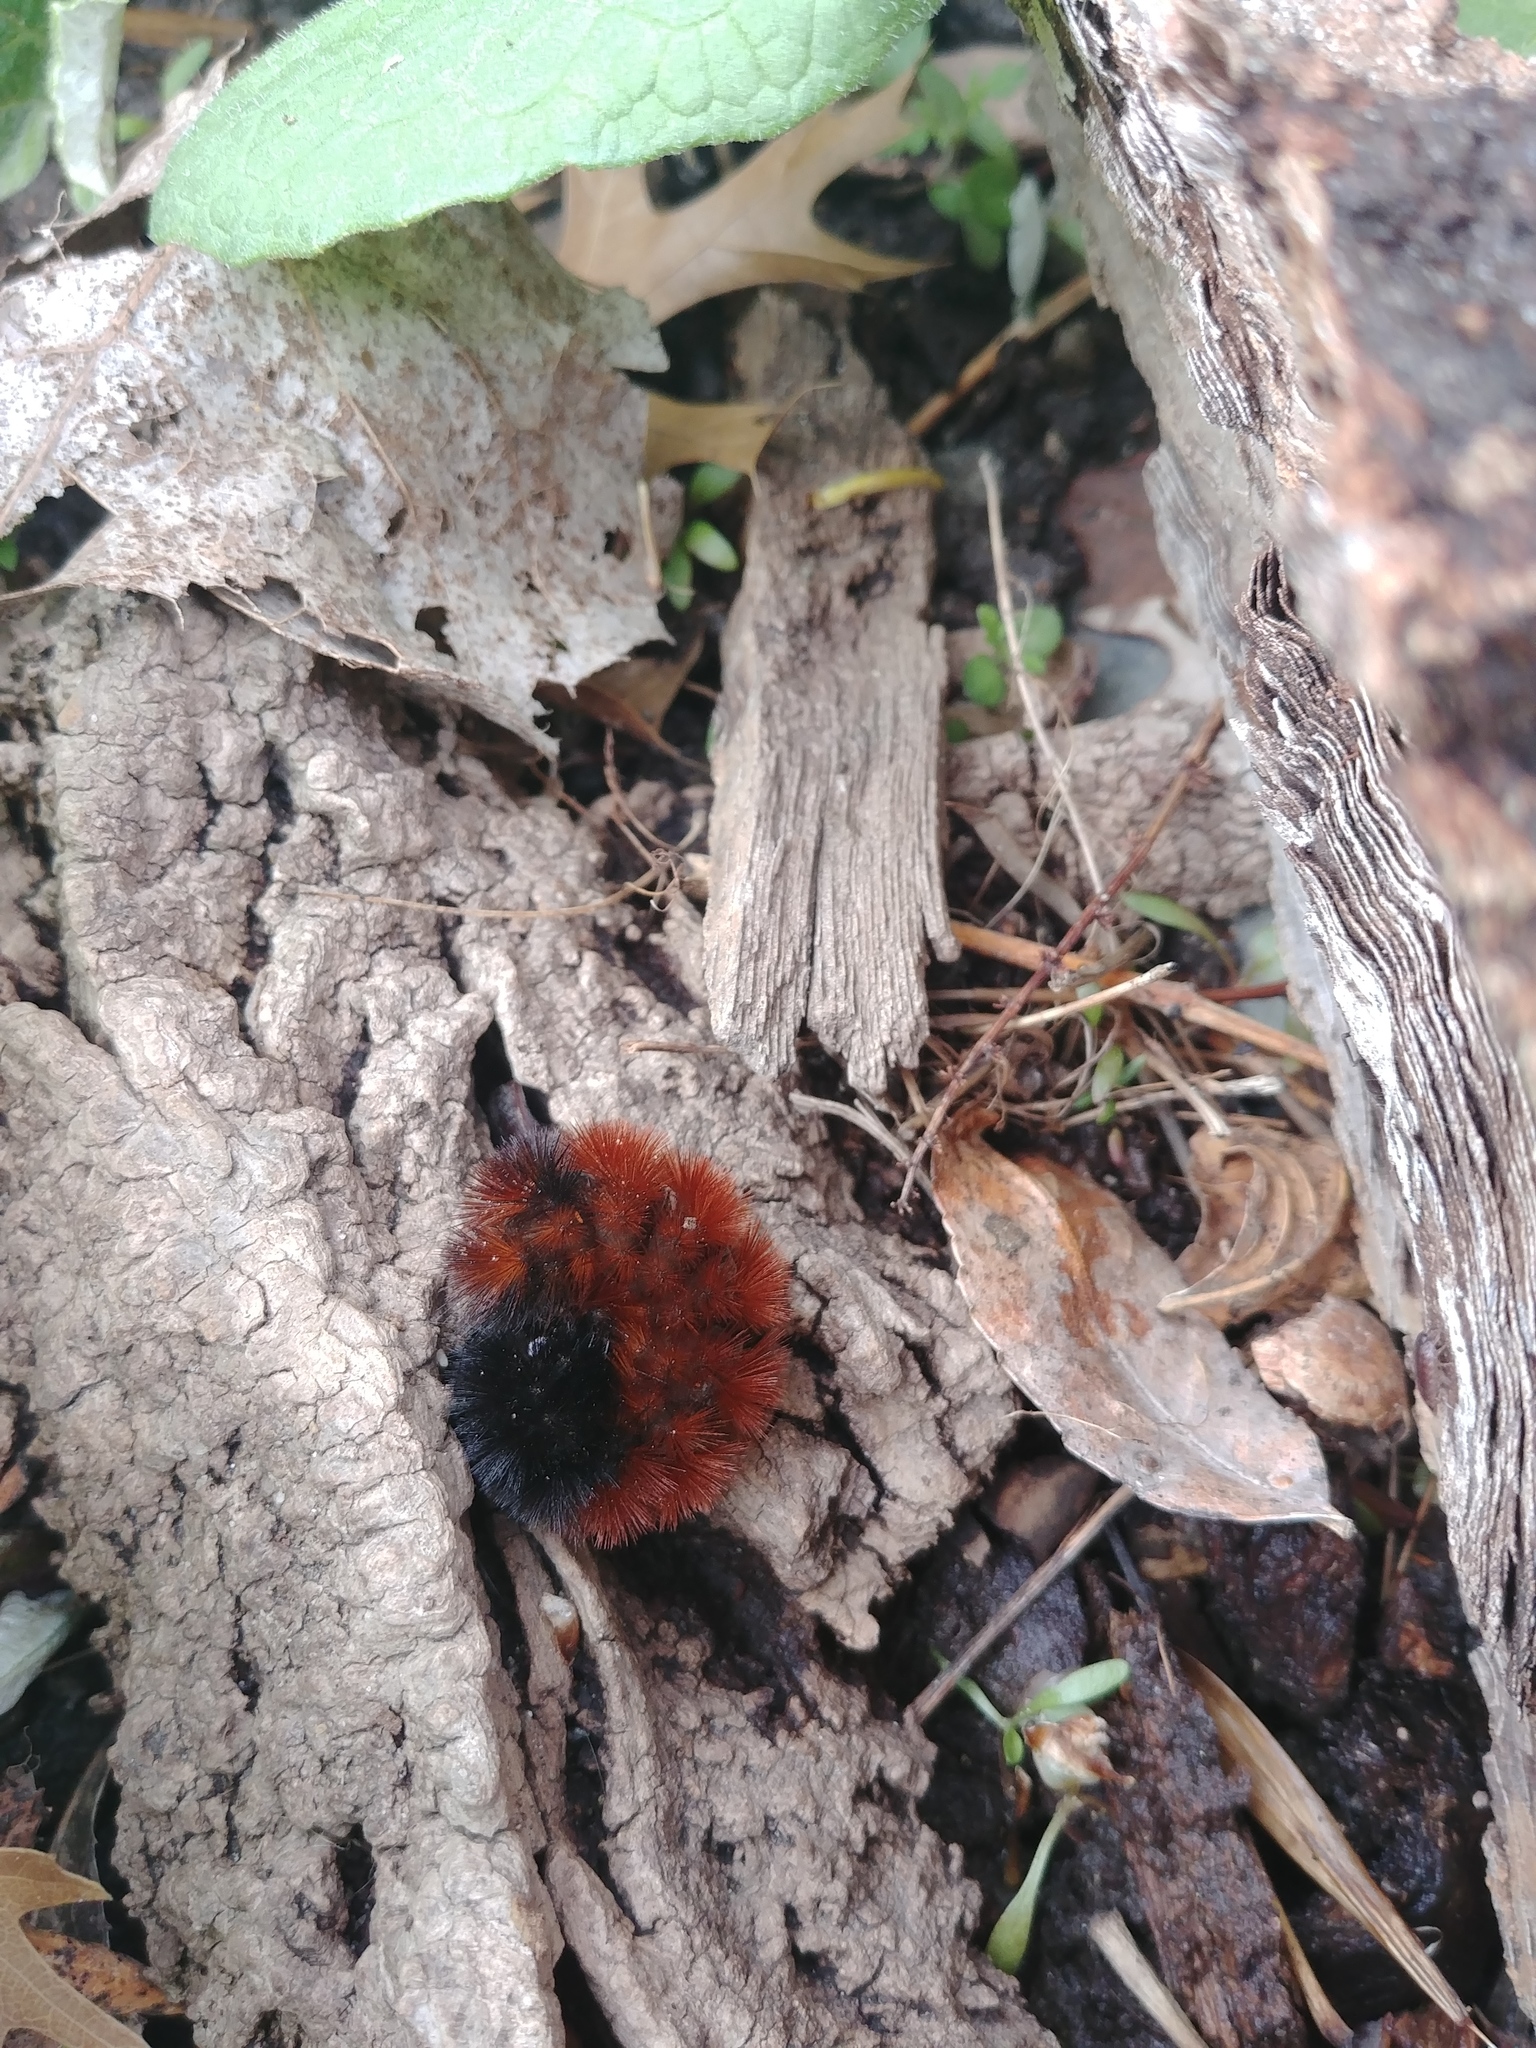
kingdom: Animalia
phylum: Arthropoda
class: Insecta
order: Lepidoptera
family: Erebidae
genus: Pyrrharctia
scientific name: Pyrrharctia isabella
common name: Isabella tiger moth
